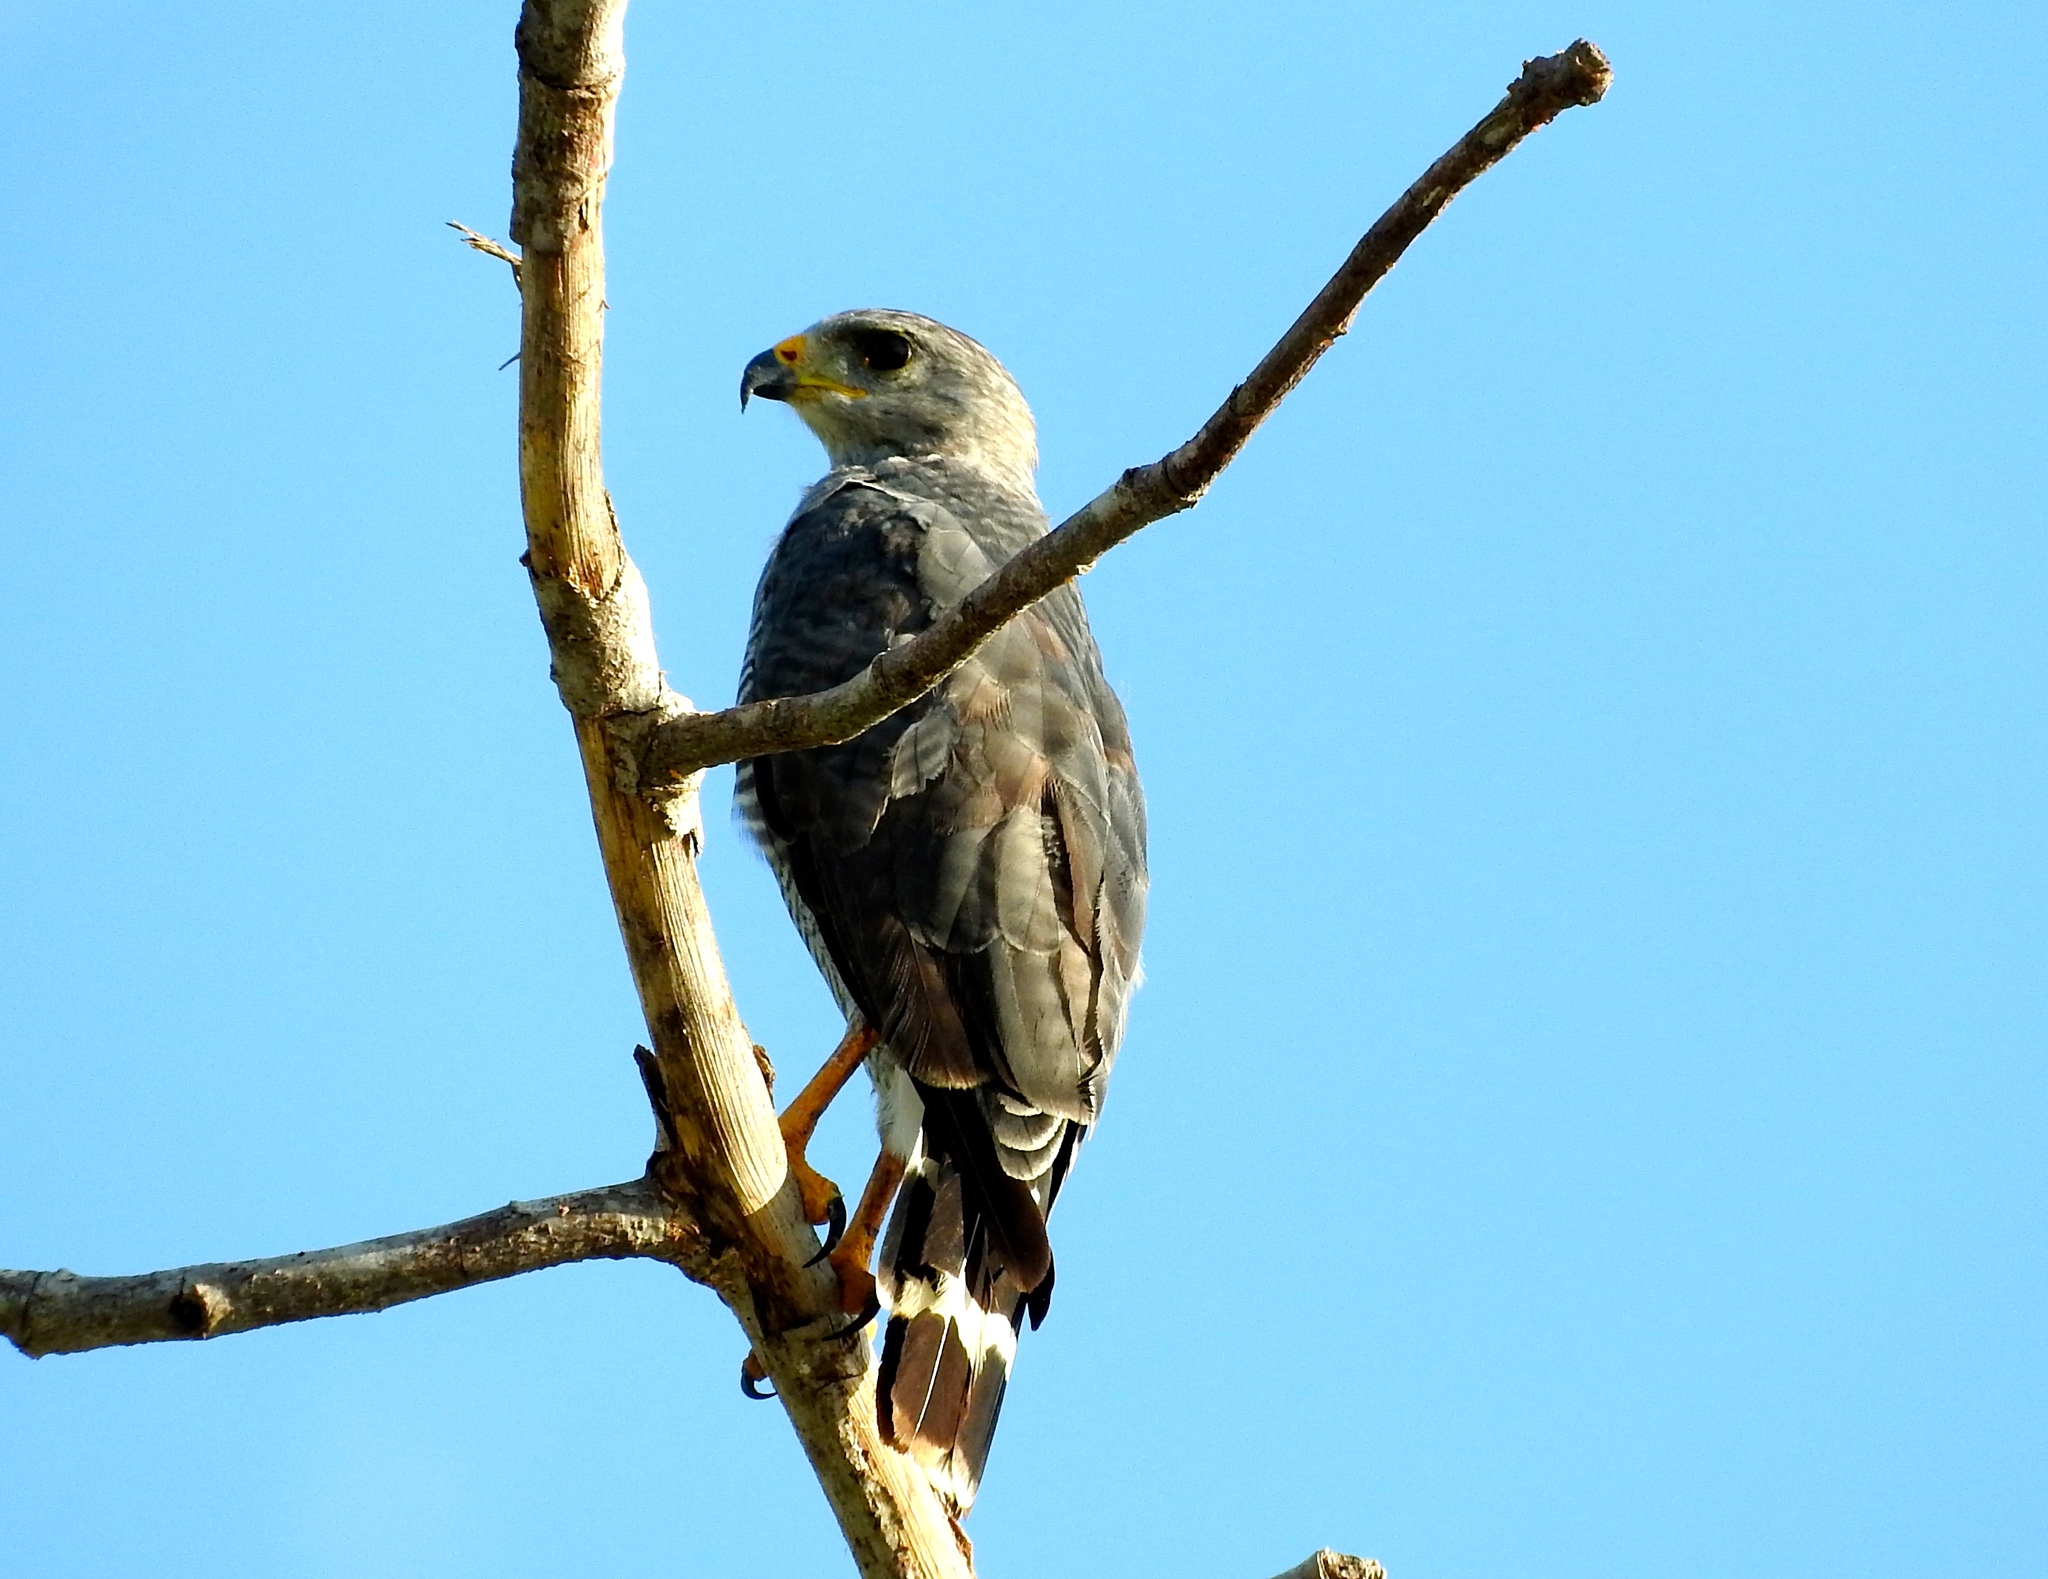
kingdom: Animalia
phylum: Chordata
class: Aves
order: Accipitriformes
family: Accipitridae
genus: Buteo
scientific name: Buteo nitidus
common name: Grey-lined hawk
